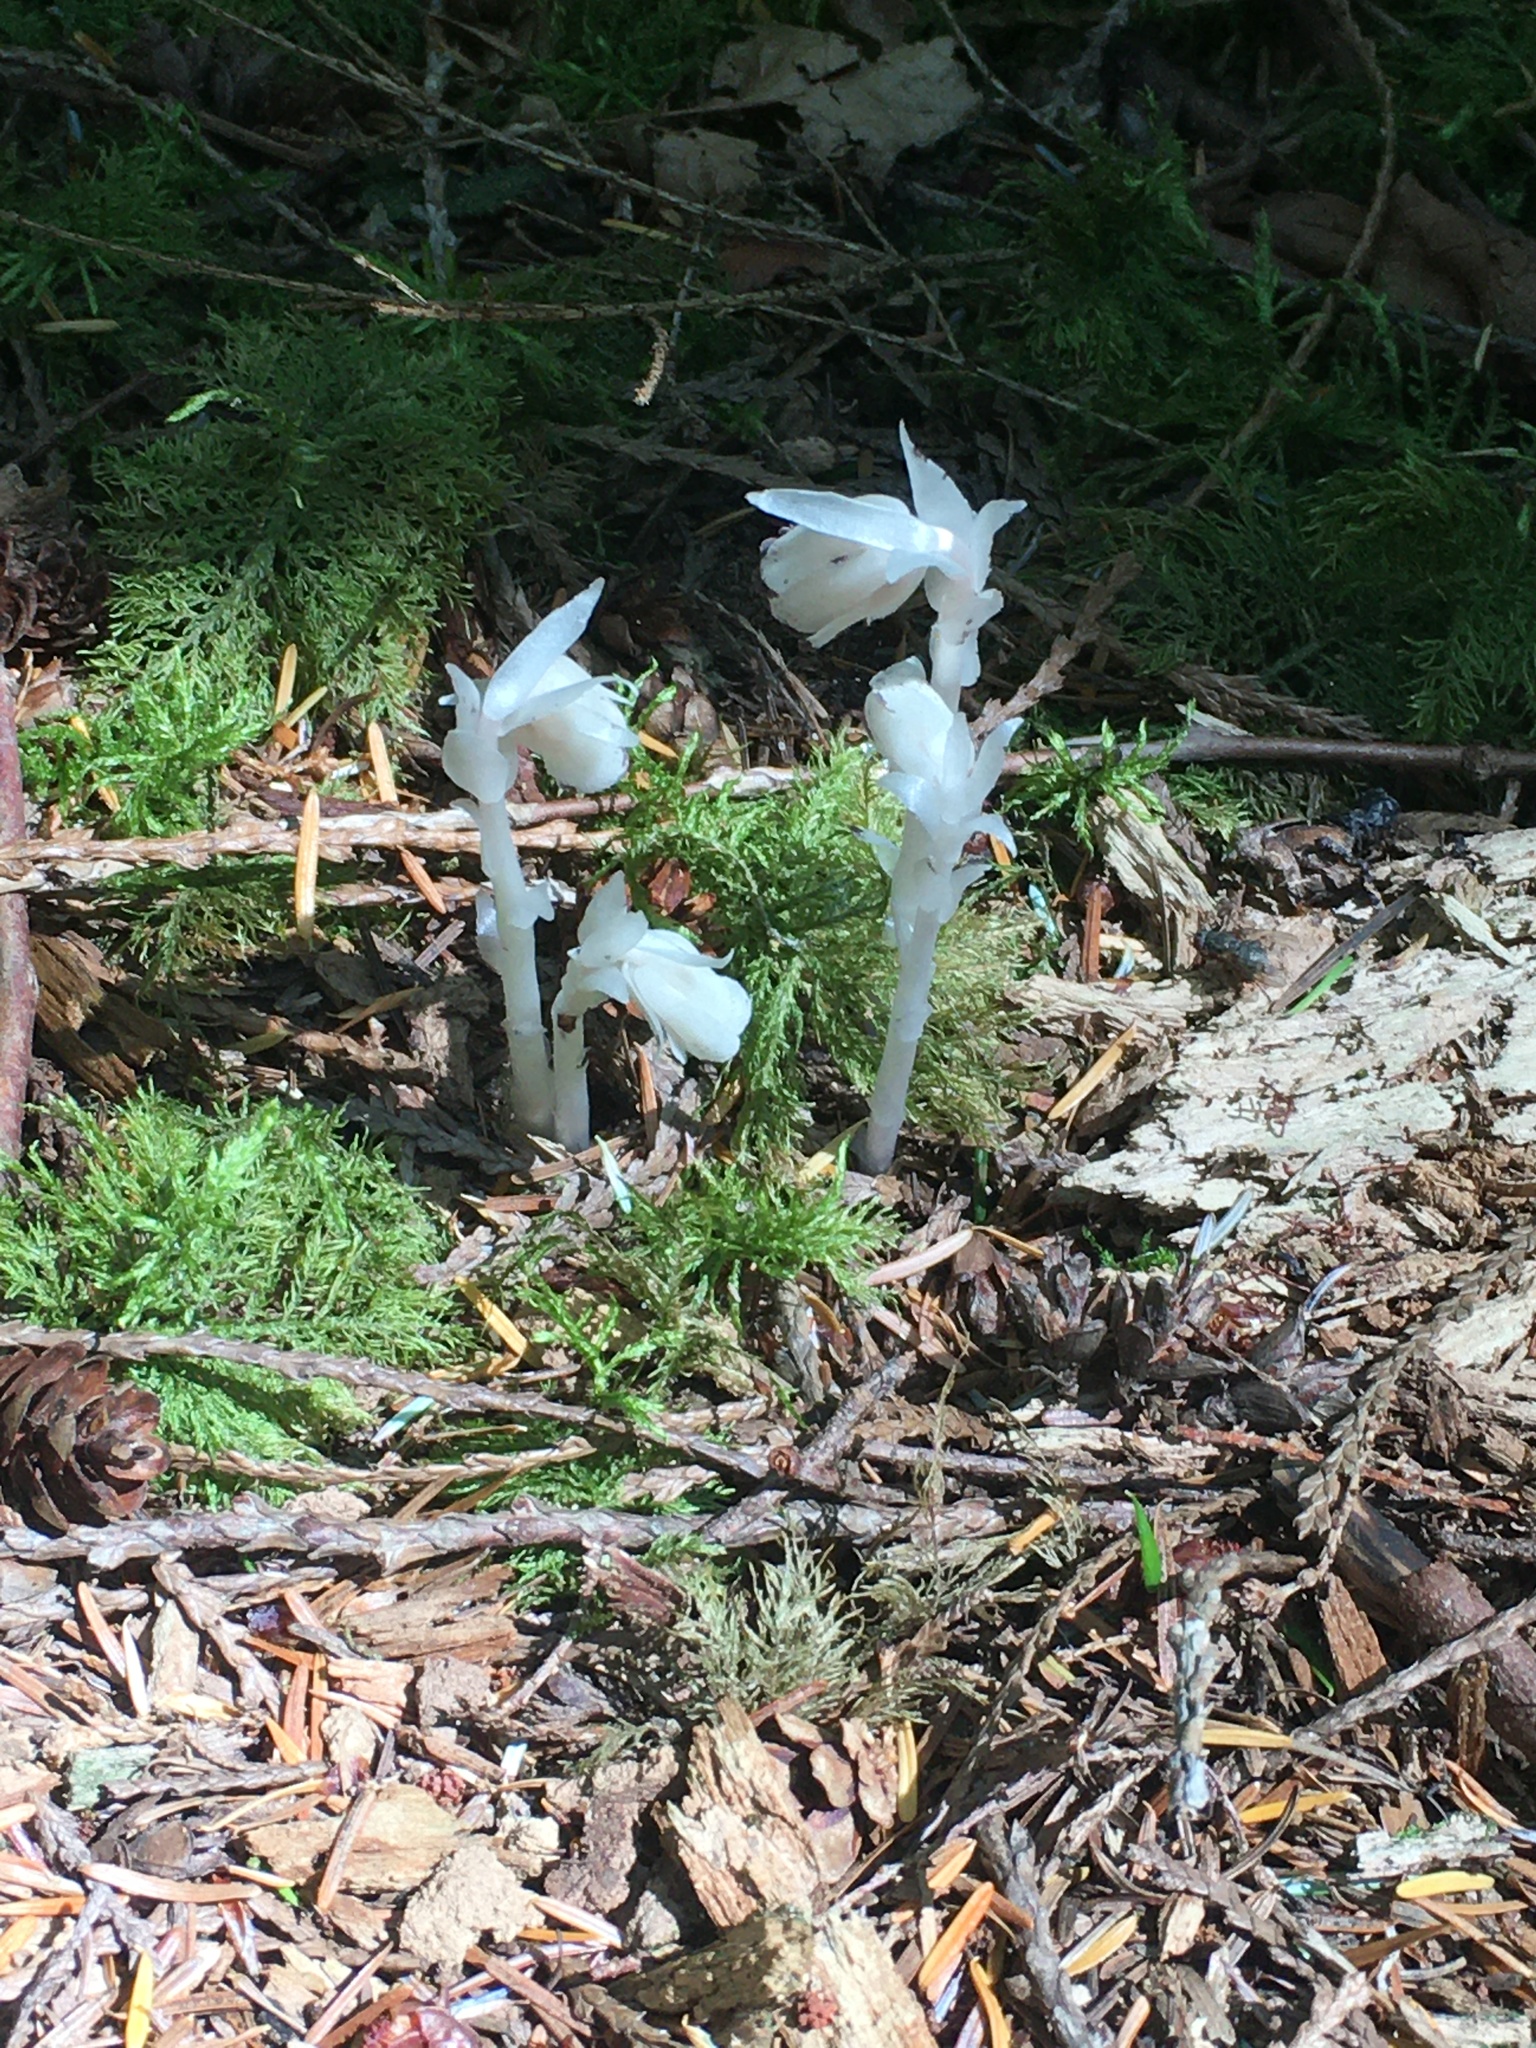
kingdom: Plantae
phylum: Tracheophyta
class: Magnoliopsida
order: Ericales
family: Ericaceae
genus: Monotropa
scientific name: Monotropa uniflora
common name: Convulsion root
